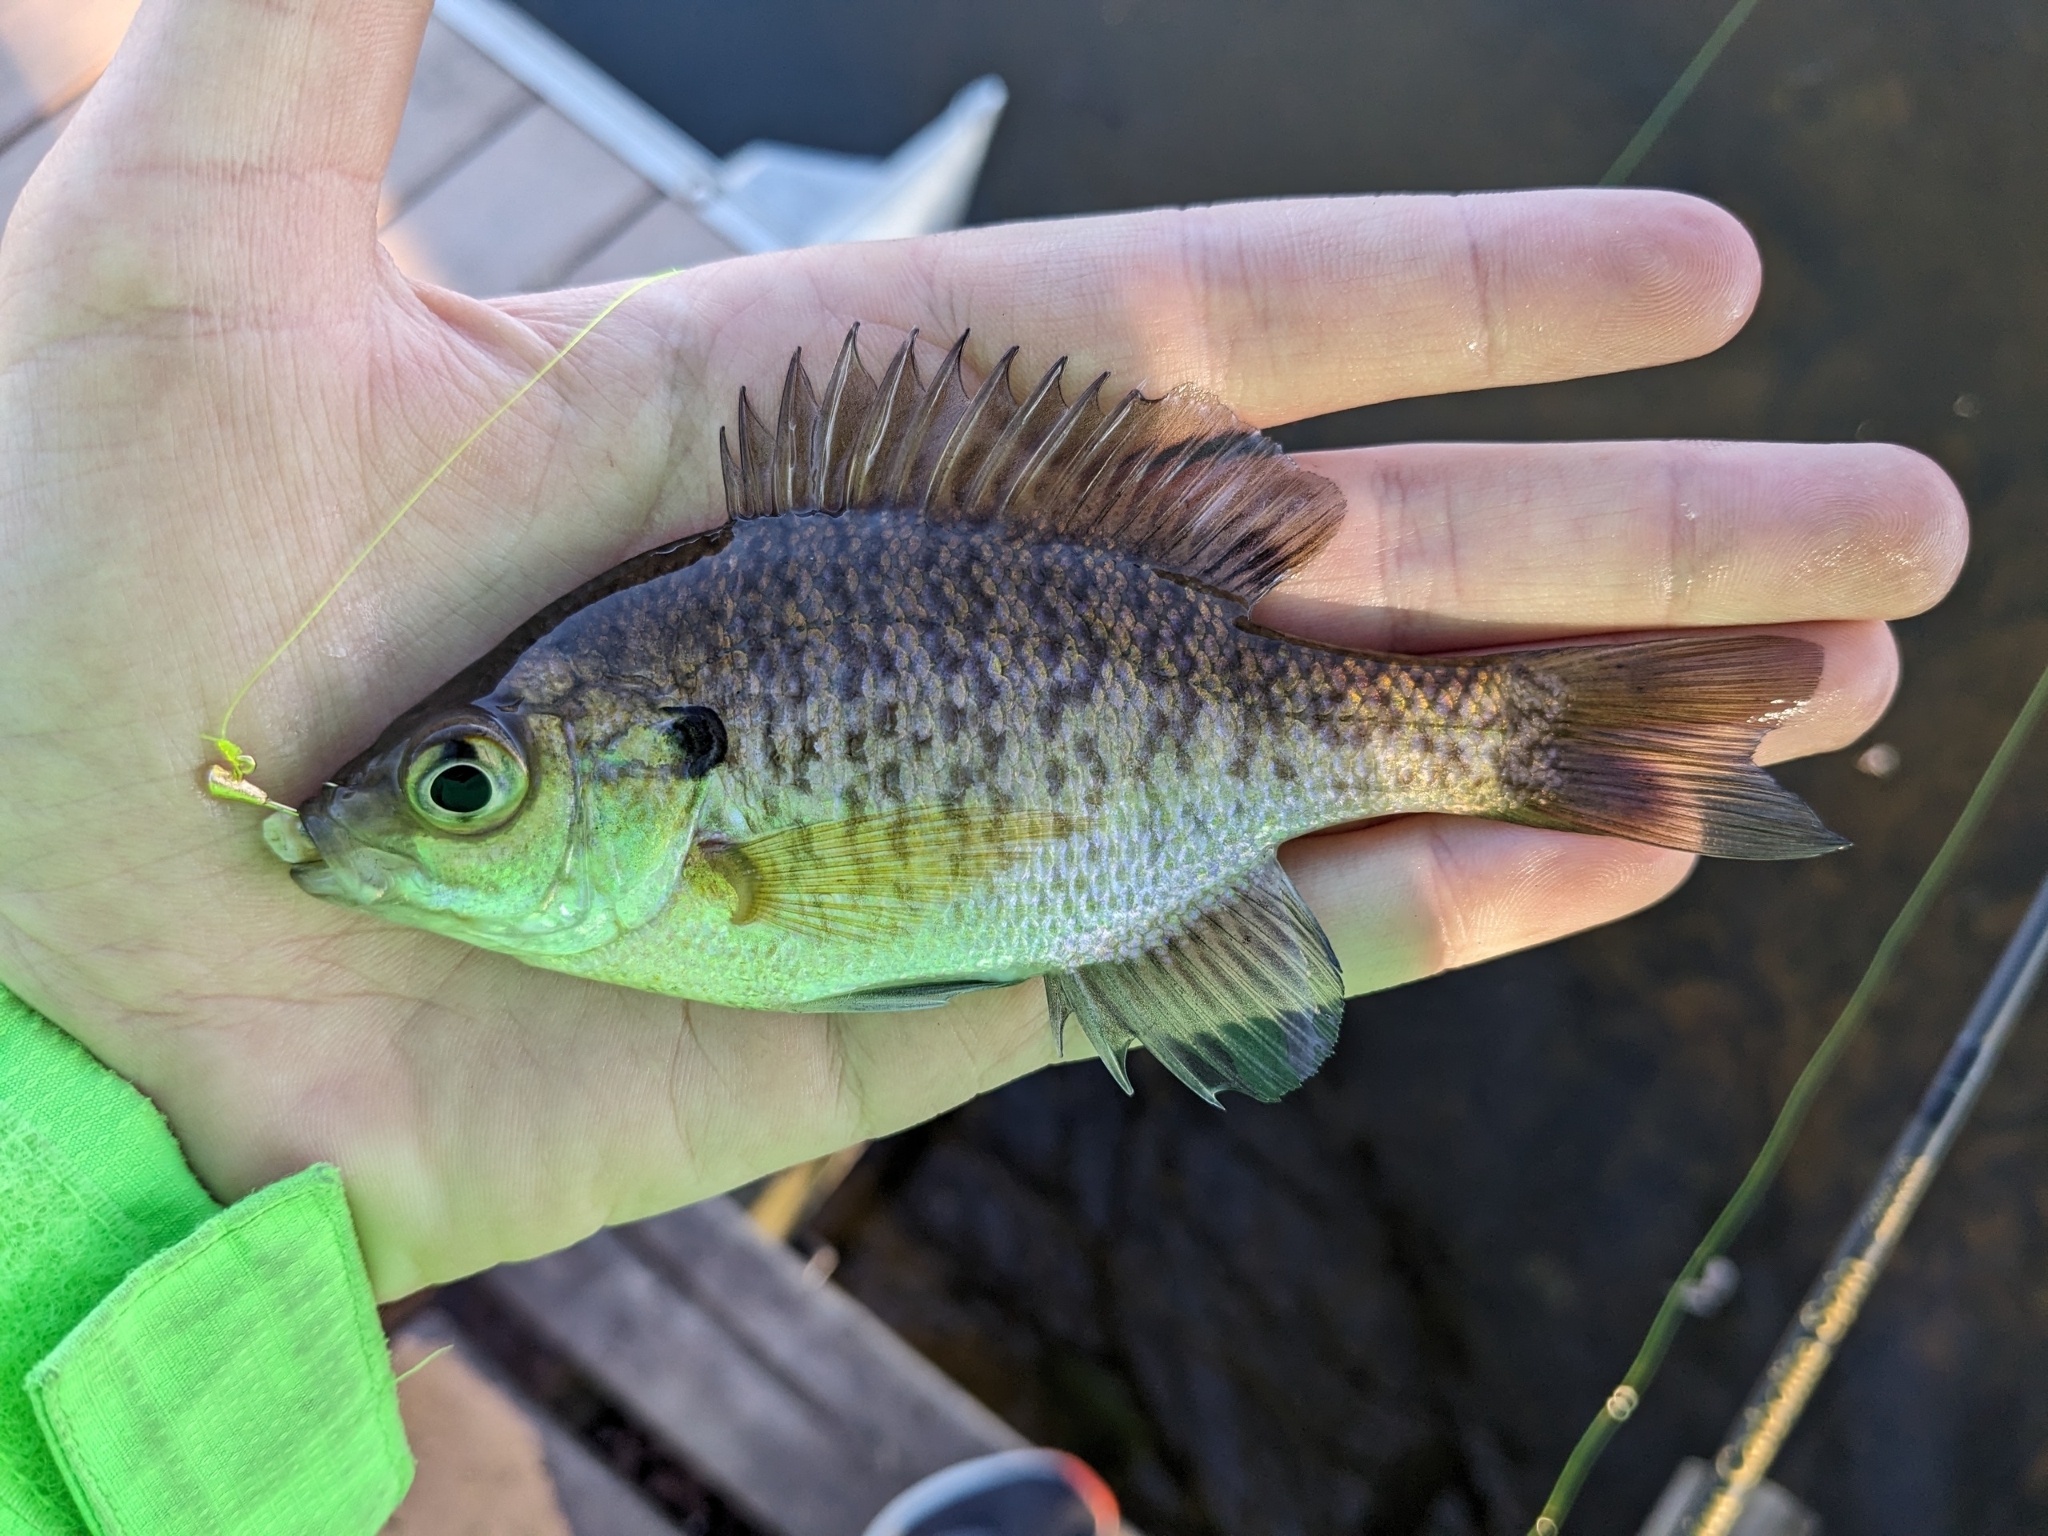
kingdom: Animalia
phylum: Chordata
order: Perciformes
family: Centrarchidae
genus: Lepomis
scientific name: Lepomis macrochirus
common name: Bluegill
